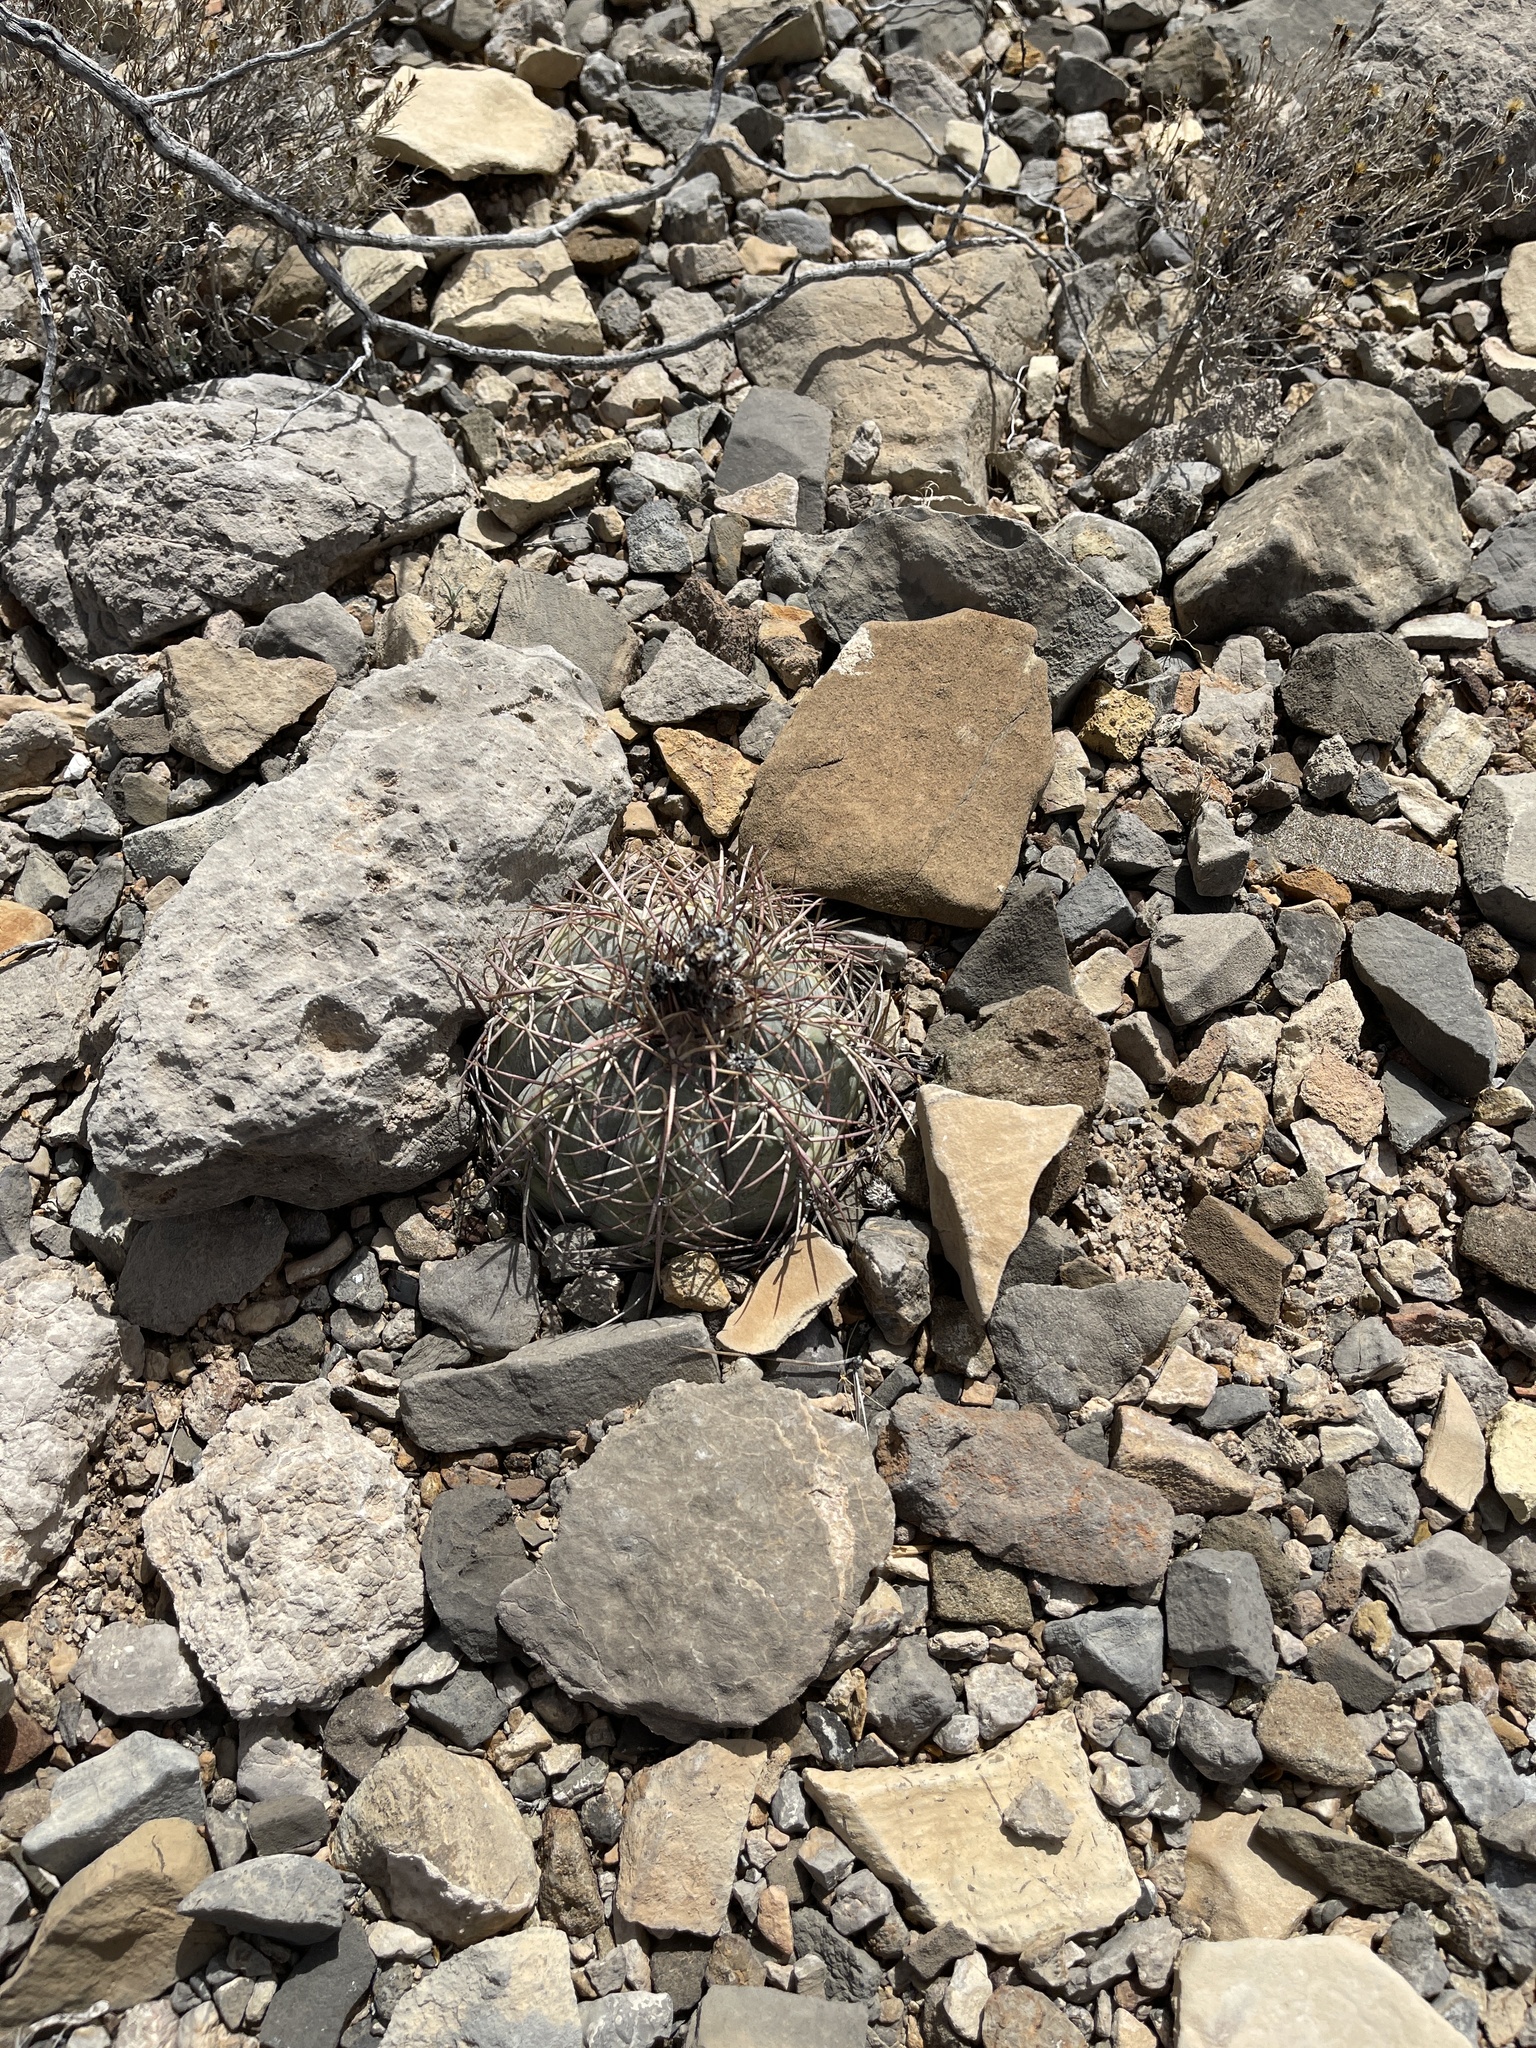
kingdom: Plantae
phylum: Tracheophyta
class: Magnoliopsida
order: Caryophyllales
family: Cactaceae
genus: Echinocactus
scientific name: Echinocactus horizonthalonius
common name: Devilshead
